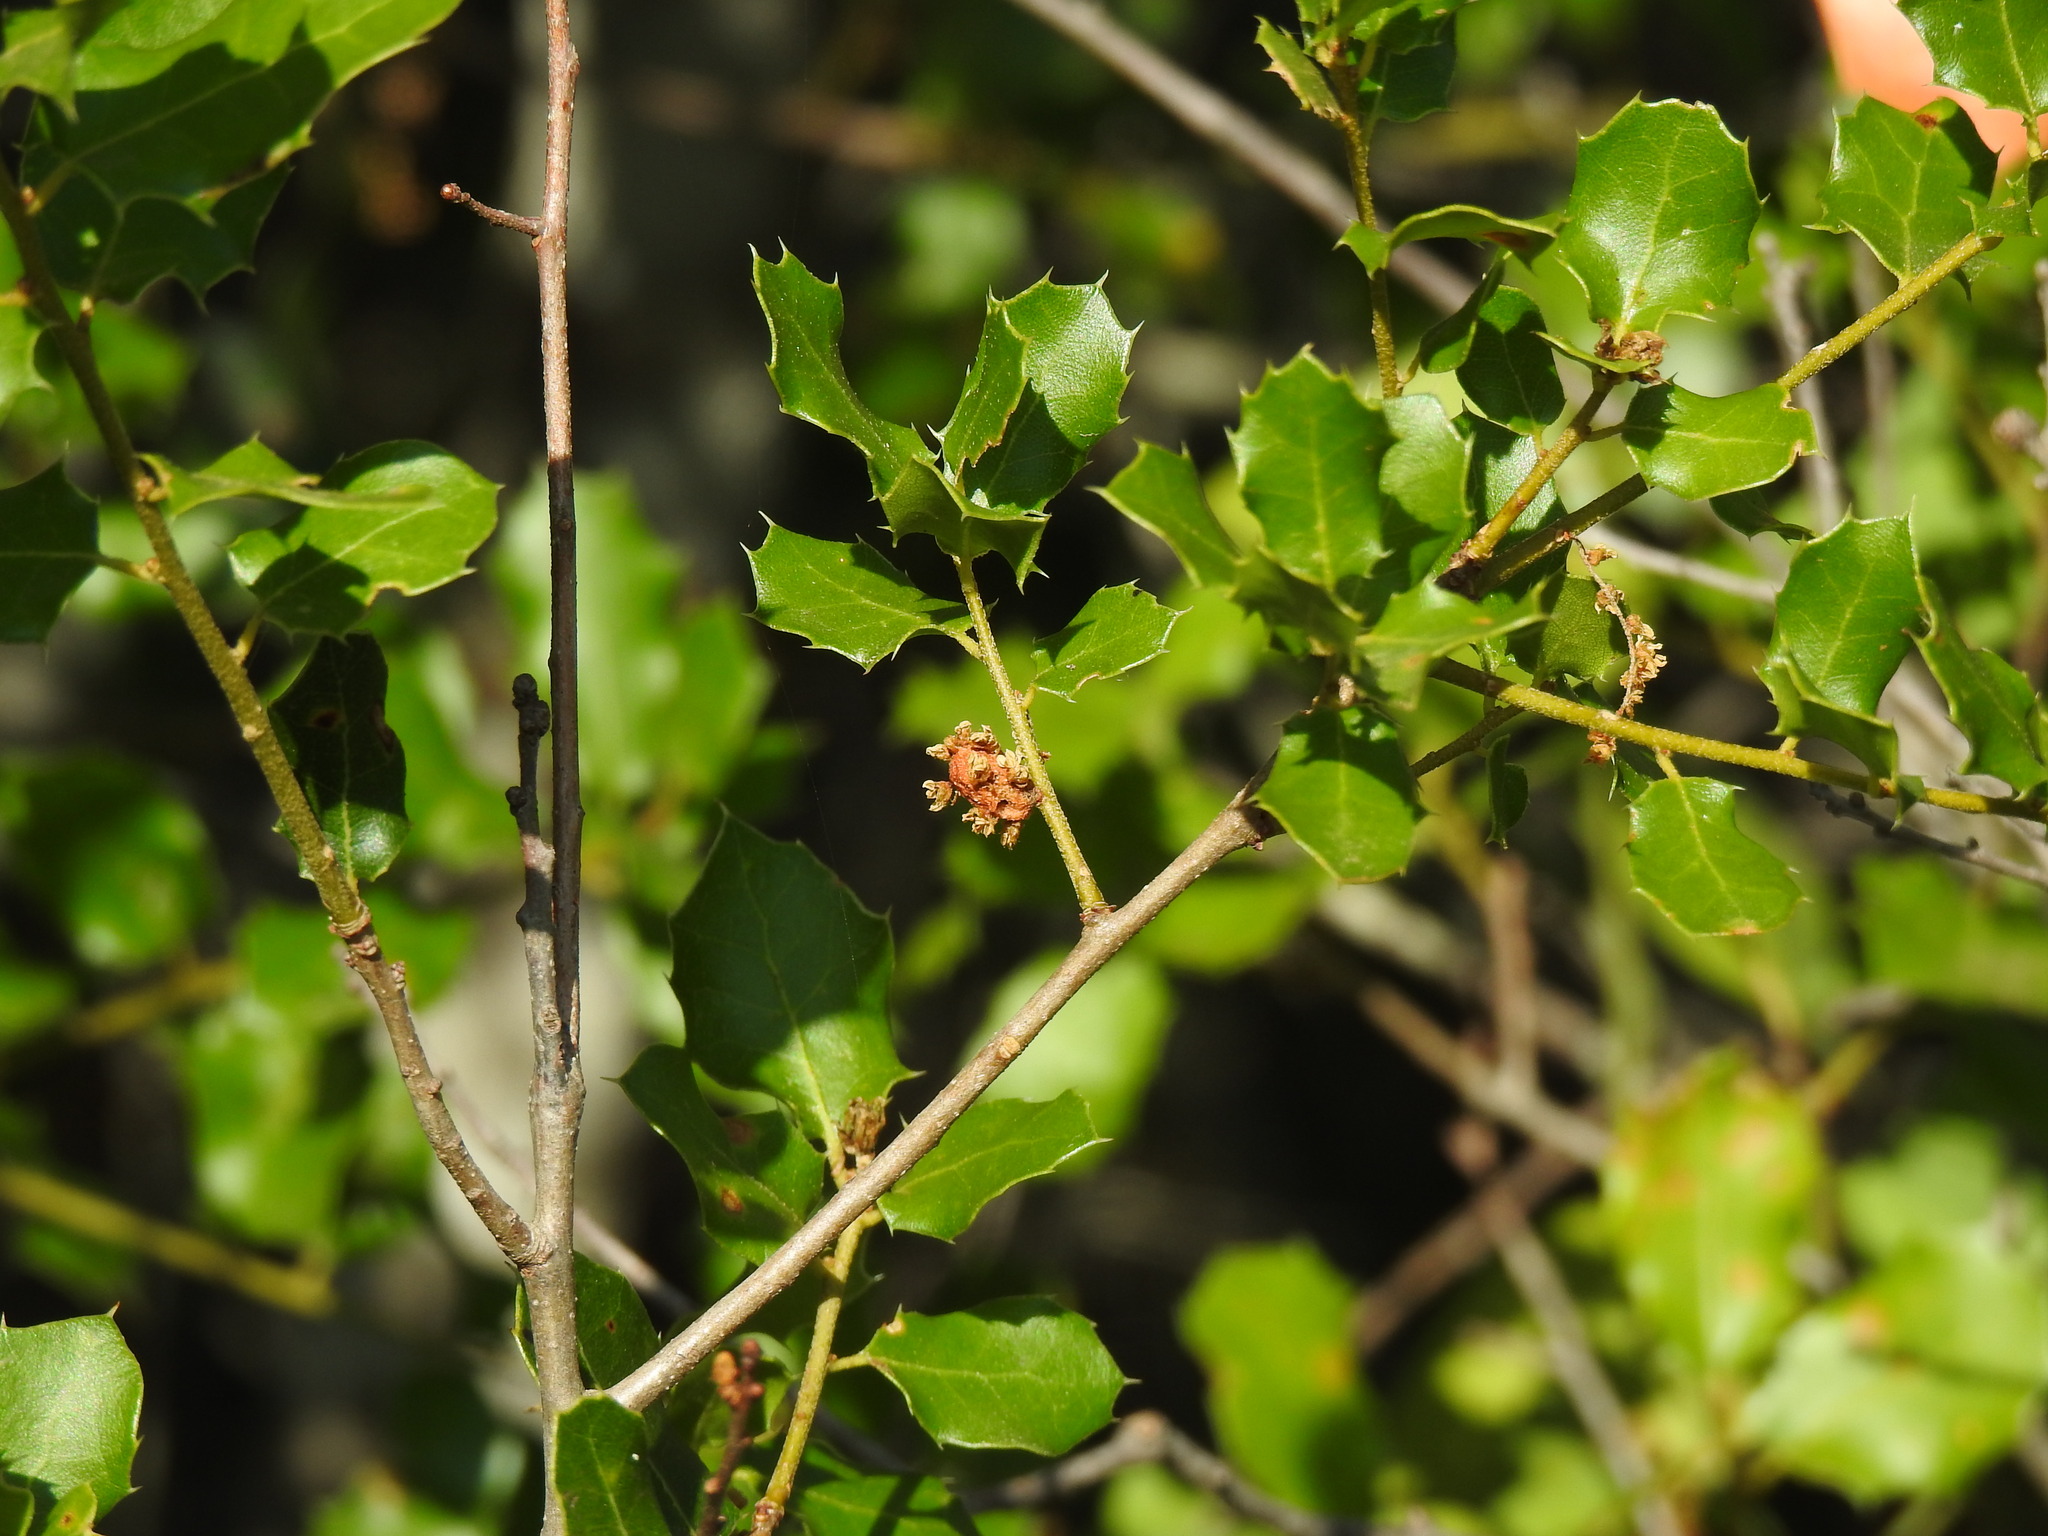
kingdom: Animalia
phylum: Arthropoda
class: Insecta
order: Hymenoptera
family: Cynipidae
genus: Plagiotrochus
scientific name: Plagiotrochus quercusilicis
